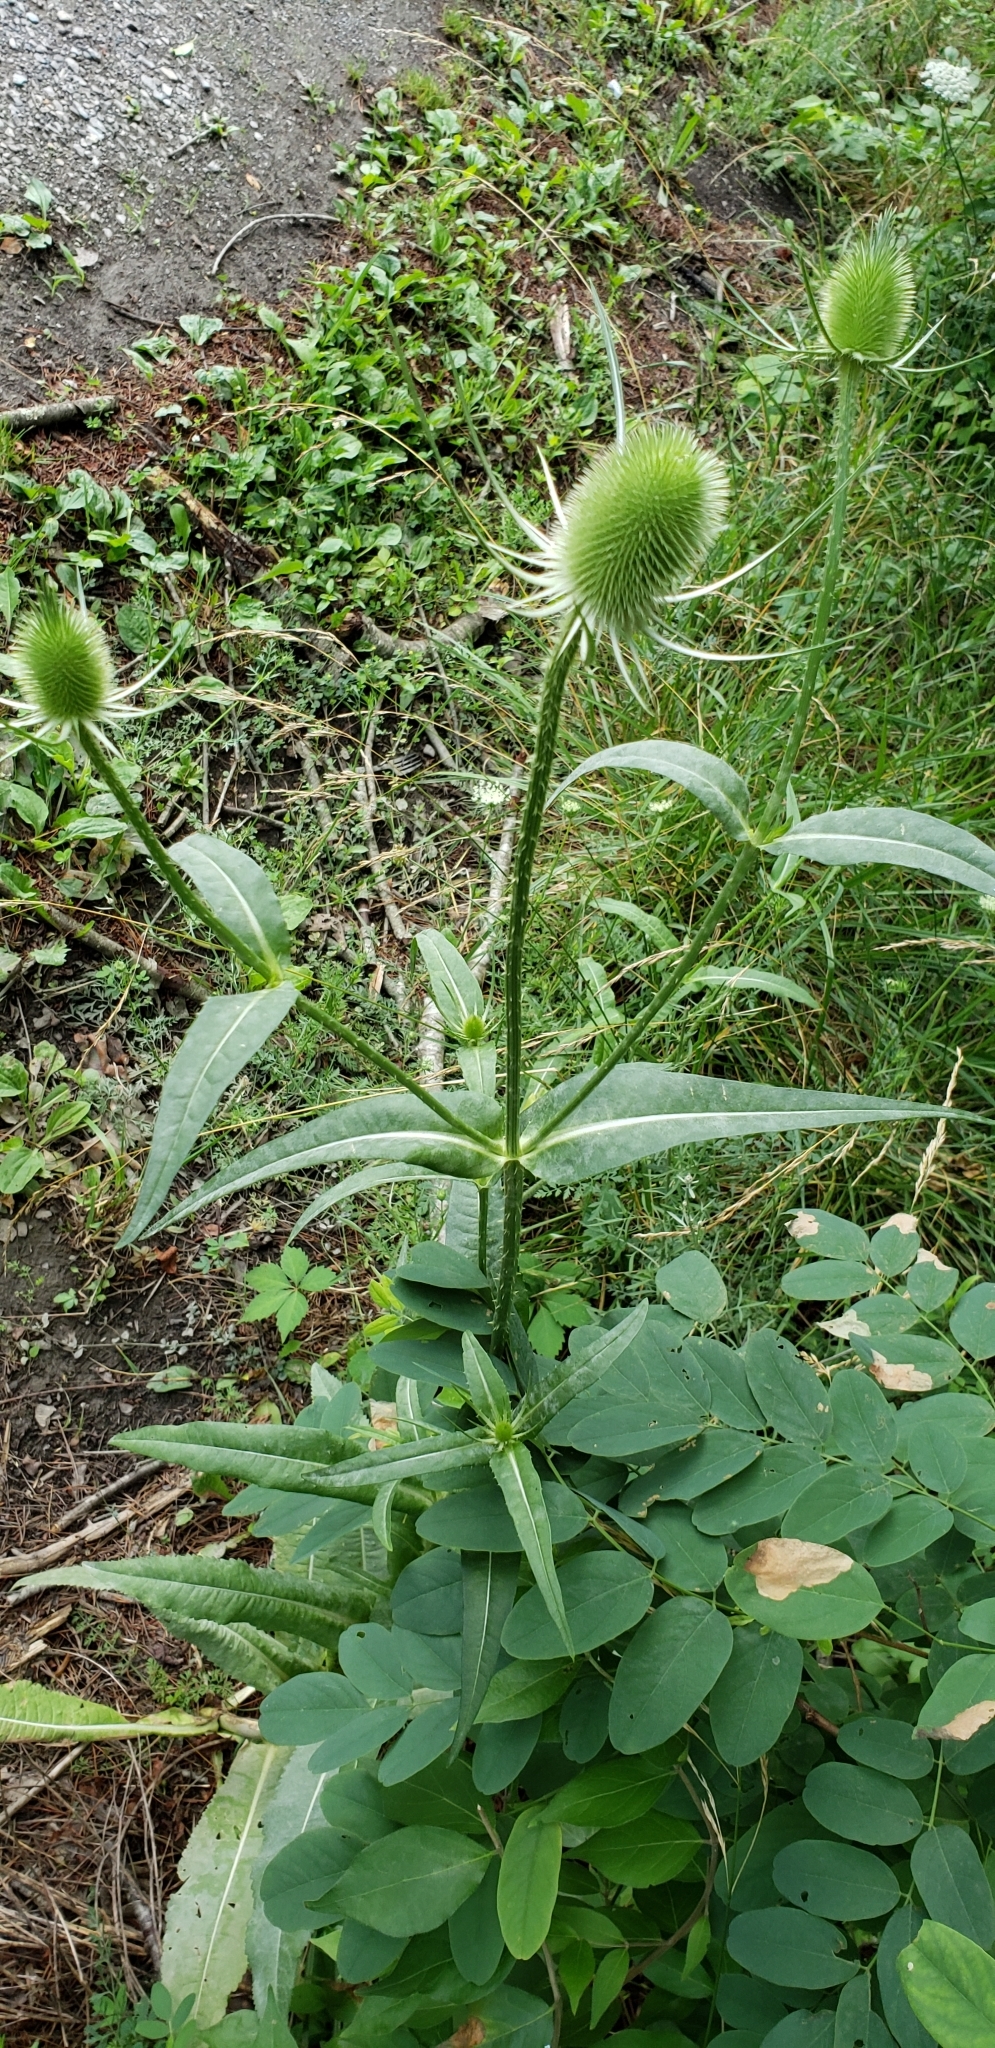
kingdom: Plantae
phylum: Tracheophyta
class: Magnoliopsida
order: Dipsacales
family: Caprifoliaceae
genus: Dipsacus
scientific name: Dipsacus fullonum
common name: Teasel
